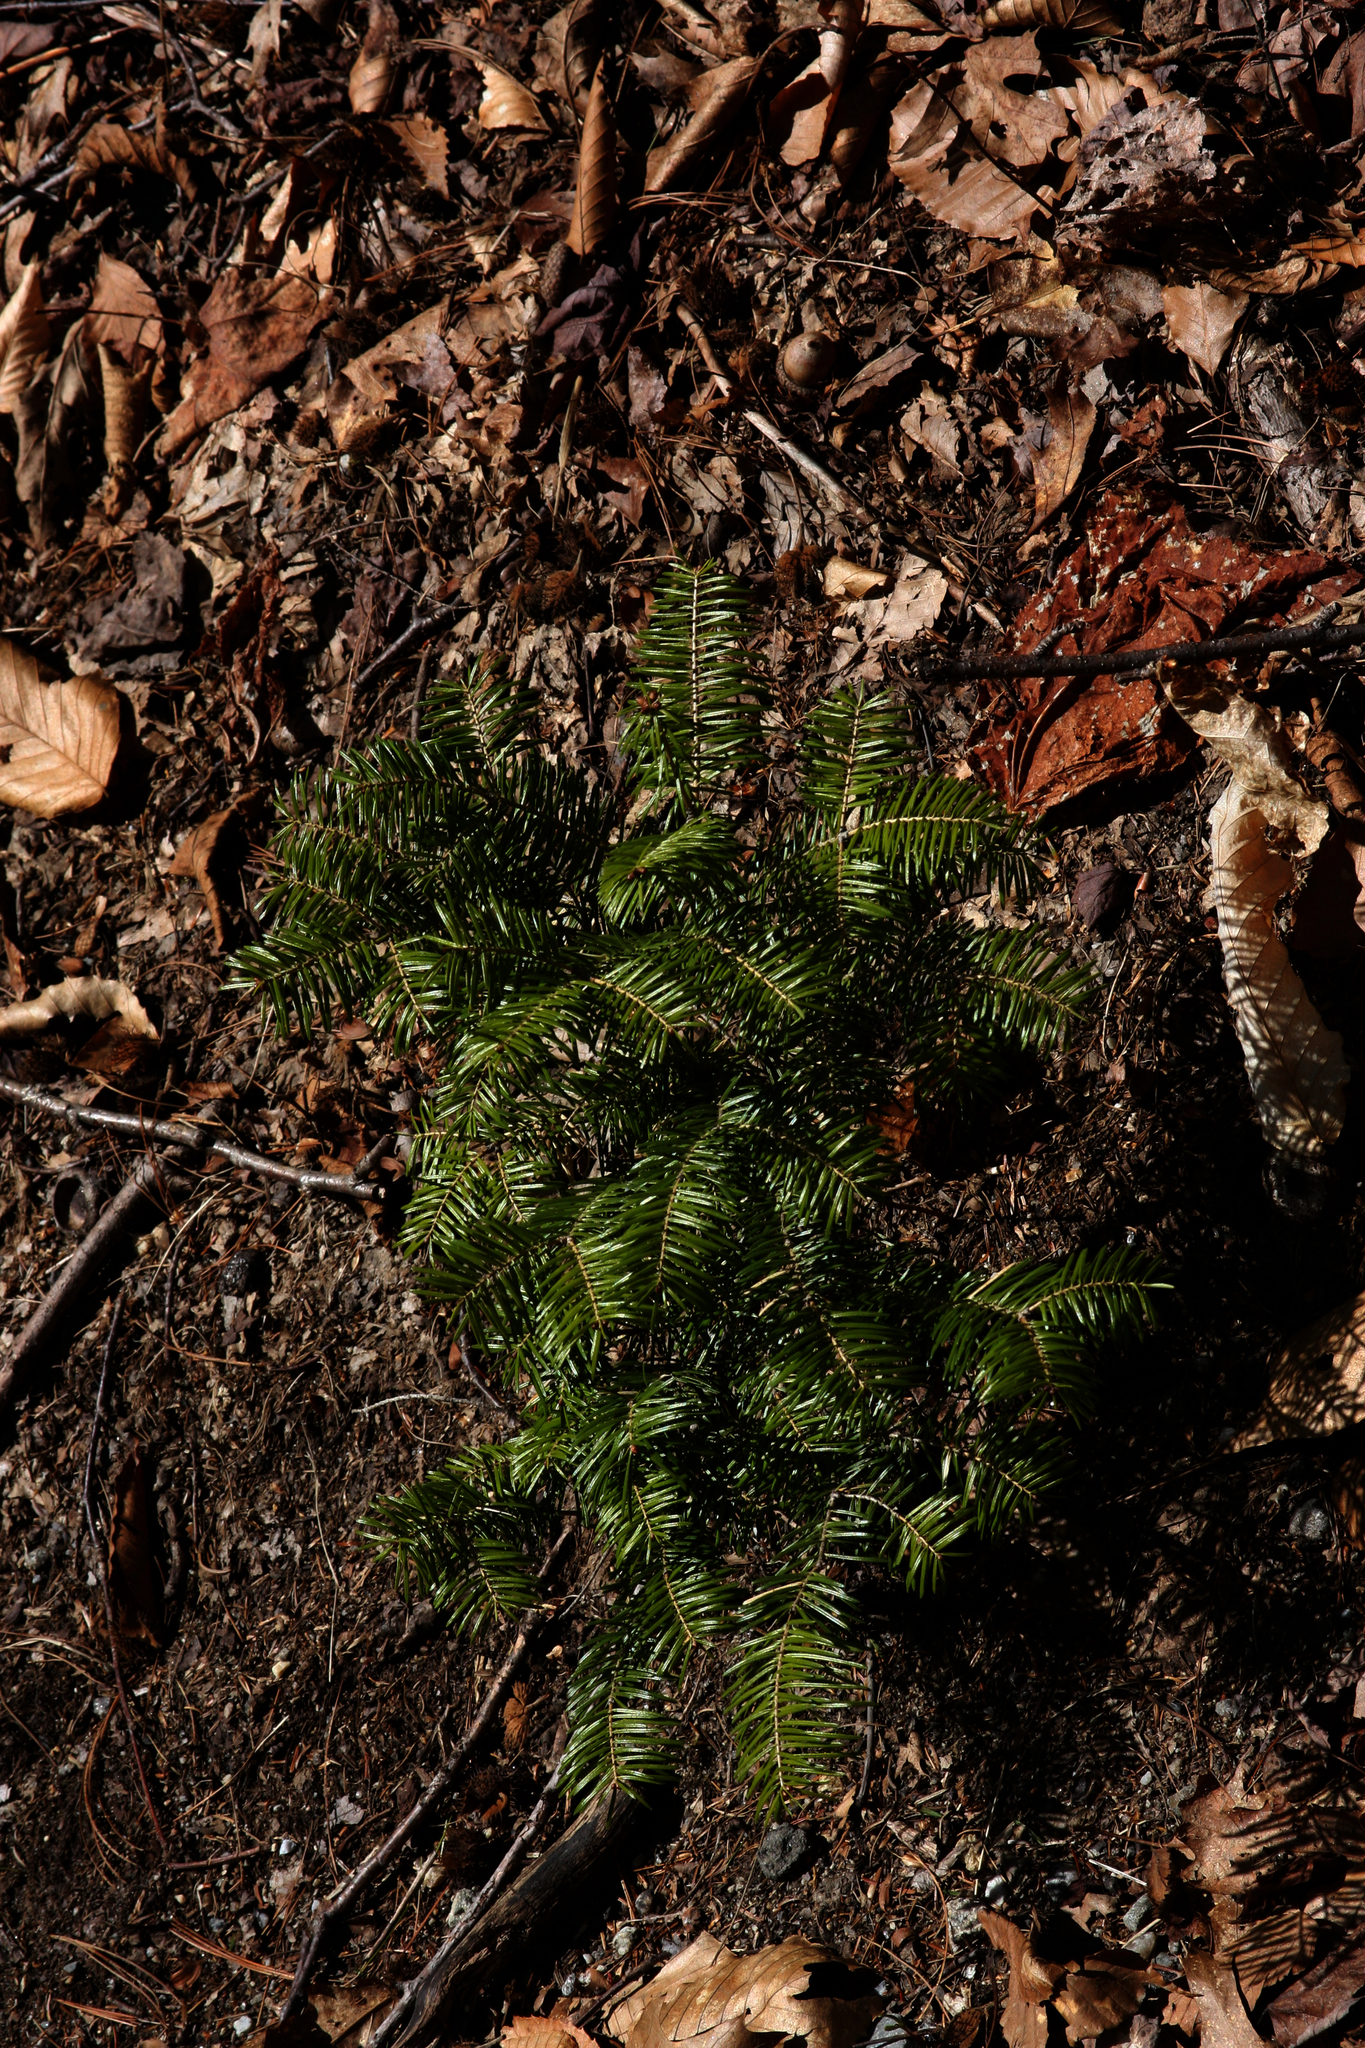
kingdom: Plantae
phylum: Tracheophyta
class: Pinopsida
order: Pinales
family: Pinaceae
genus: Abies
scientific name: Abies balsamea
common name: Balsam fir
